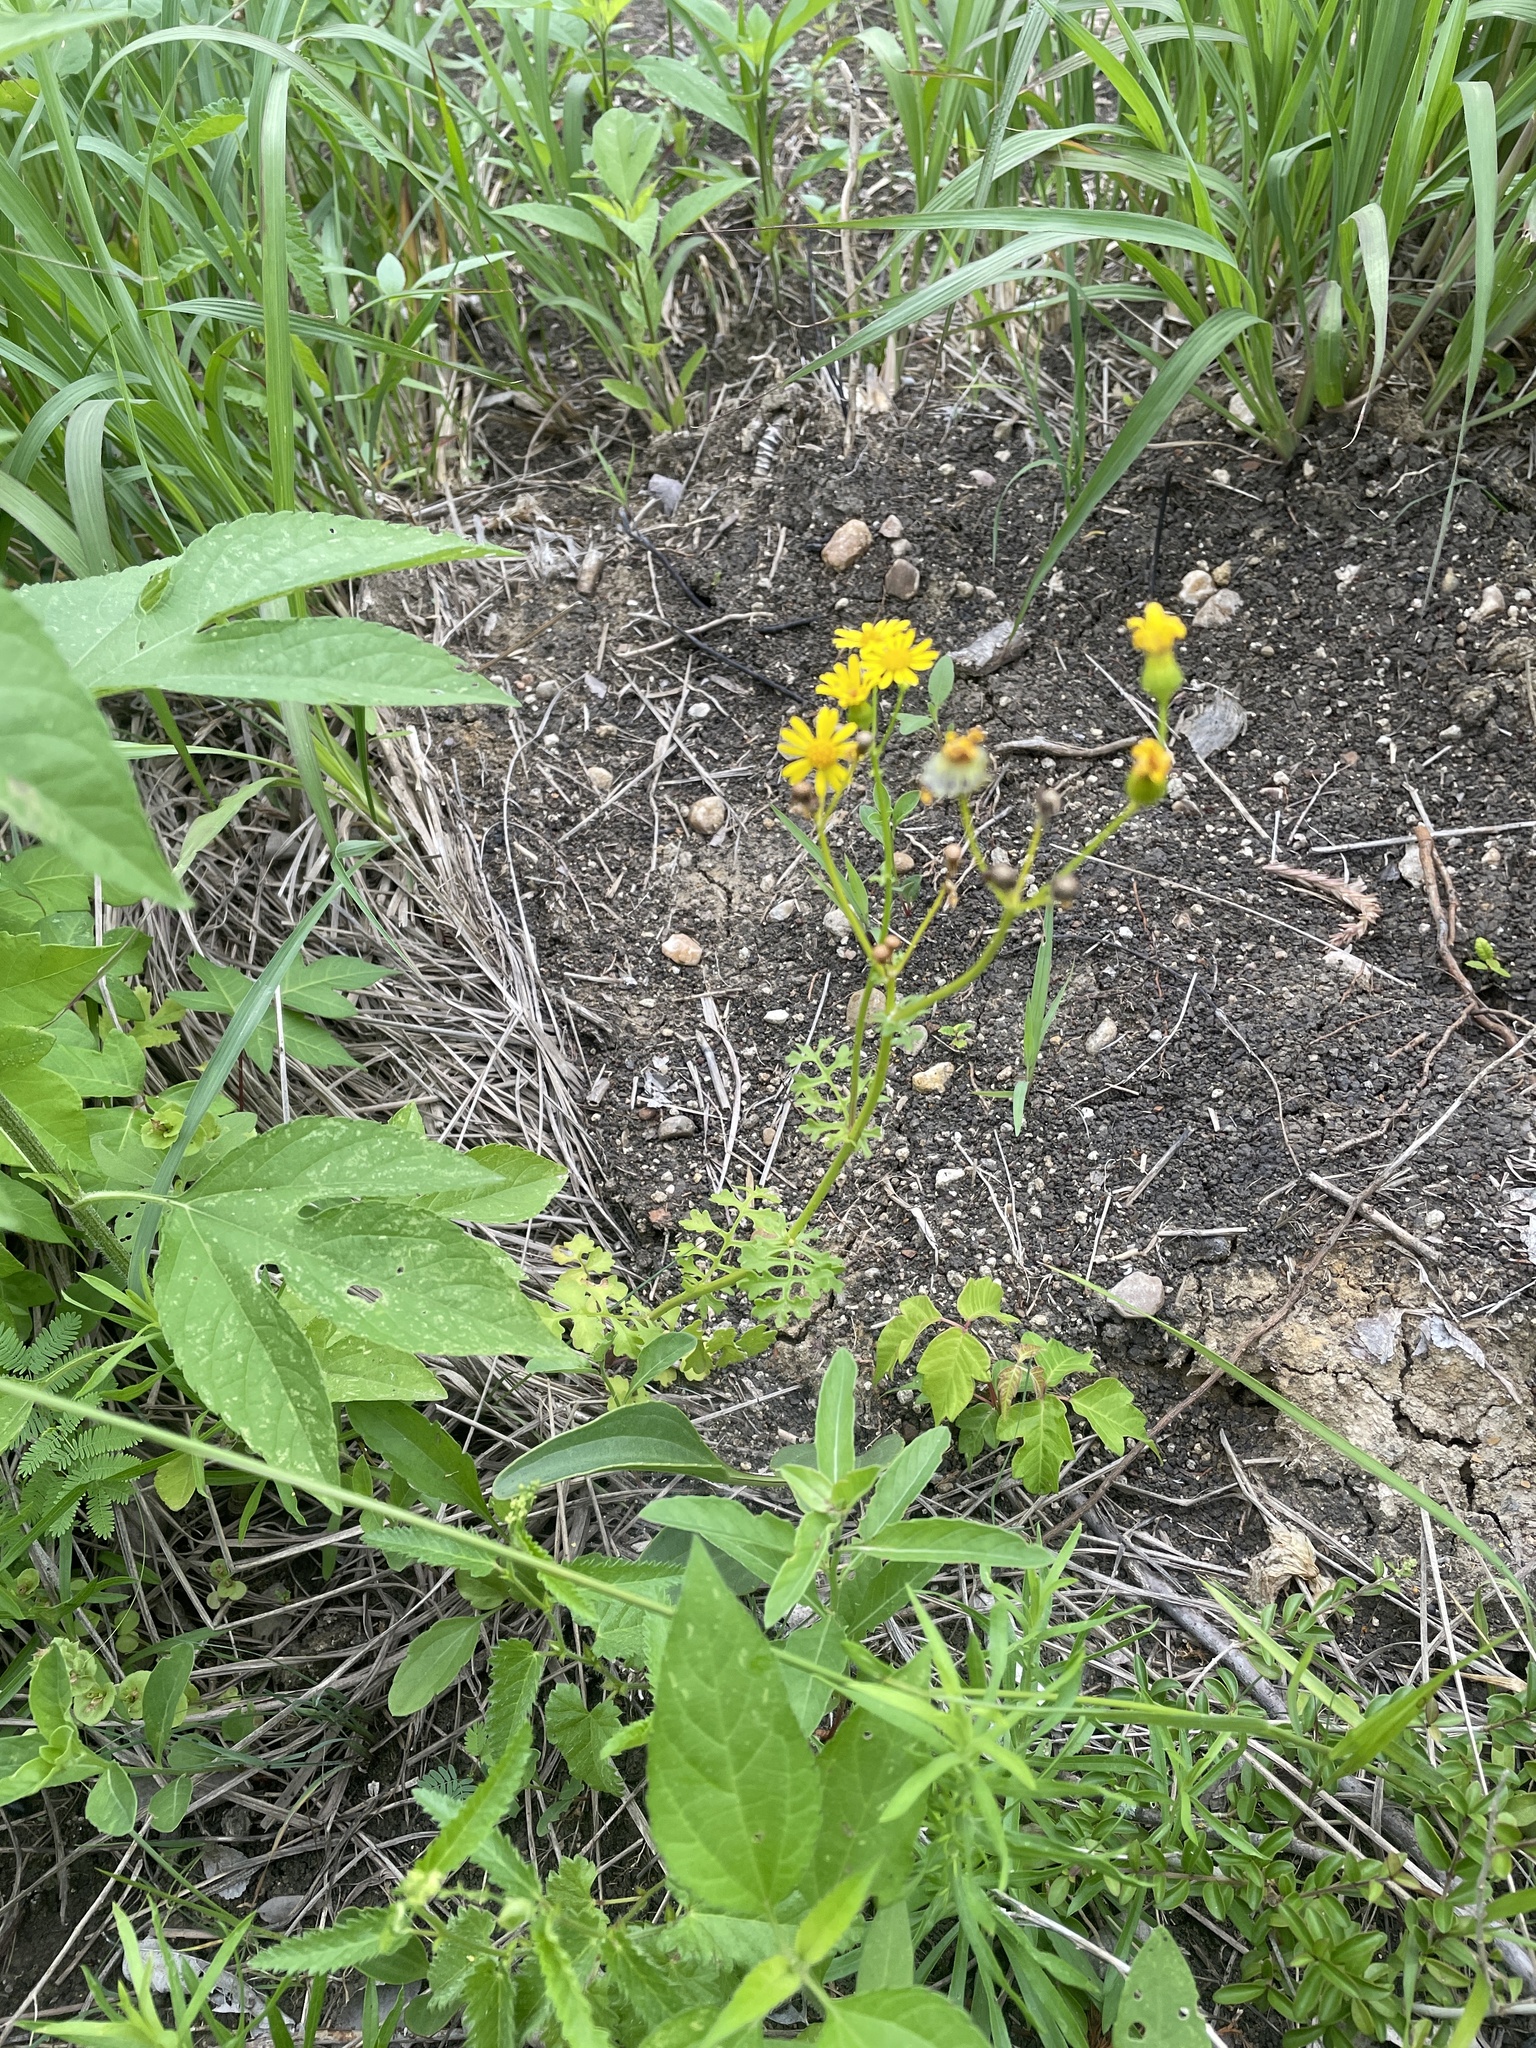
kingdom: Plantae
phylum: Tracheophyta
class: Magnoliopsida
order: Asterales
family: Asteraceae
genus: Packera
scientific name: Packera tampicana
